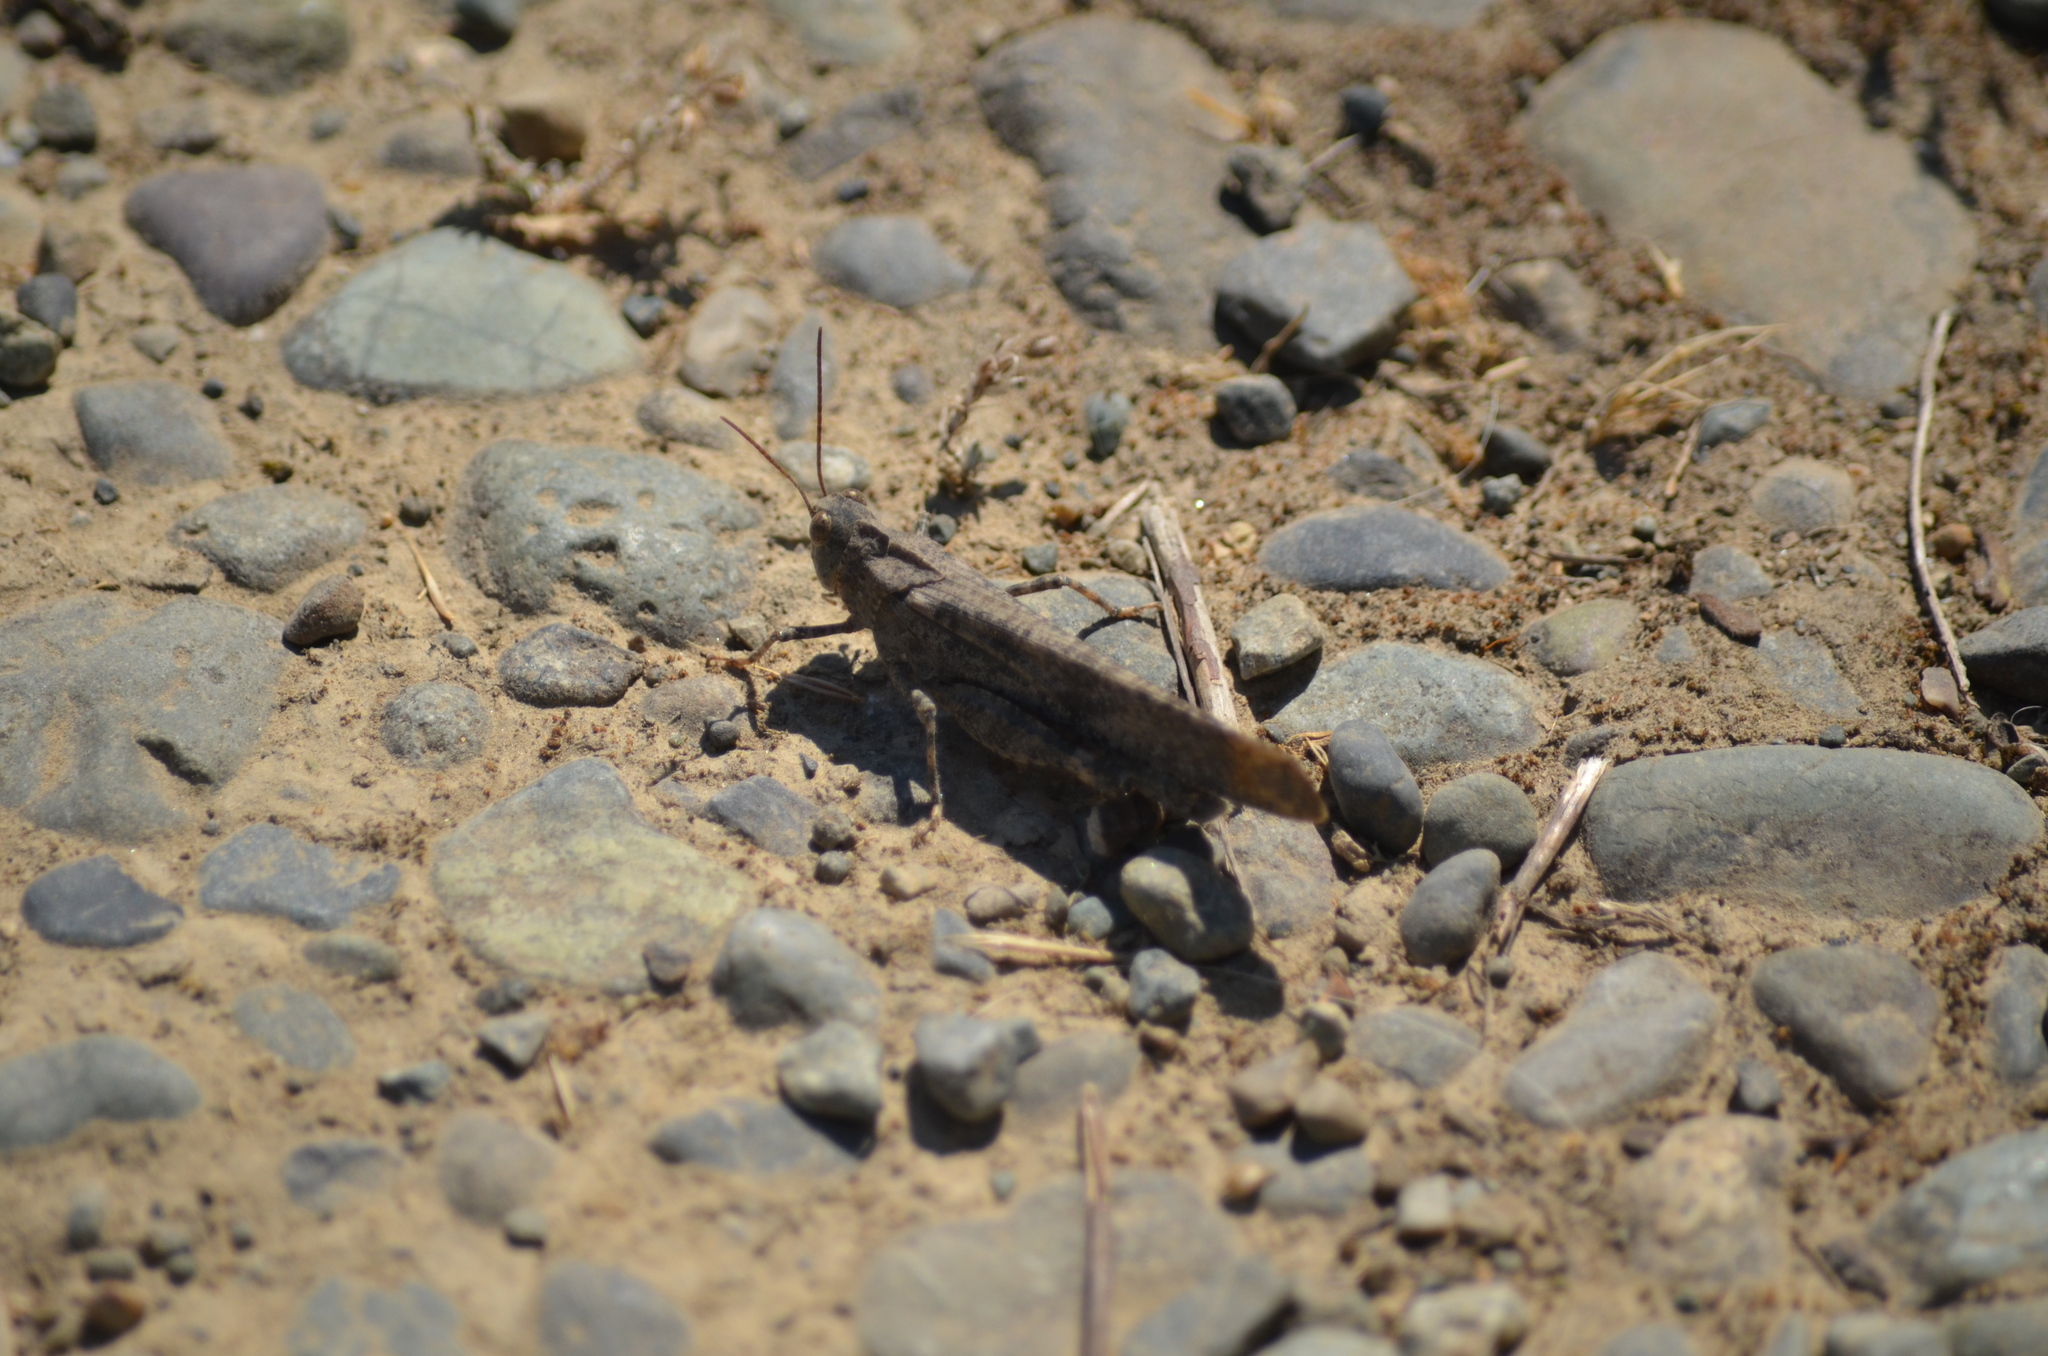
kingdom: Animalia
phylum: Arthropoda
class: Insecta
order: Orthoptera
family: Acrididae
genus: Dissosteira
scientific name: Dissosteira carolina
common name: Carolina grasshopper
